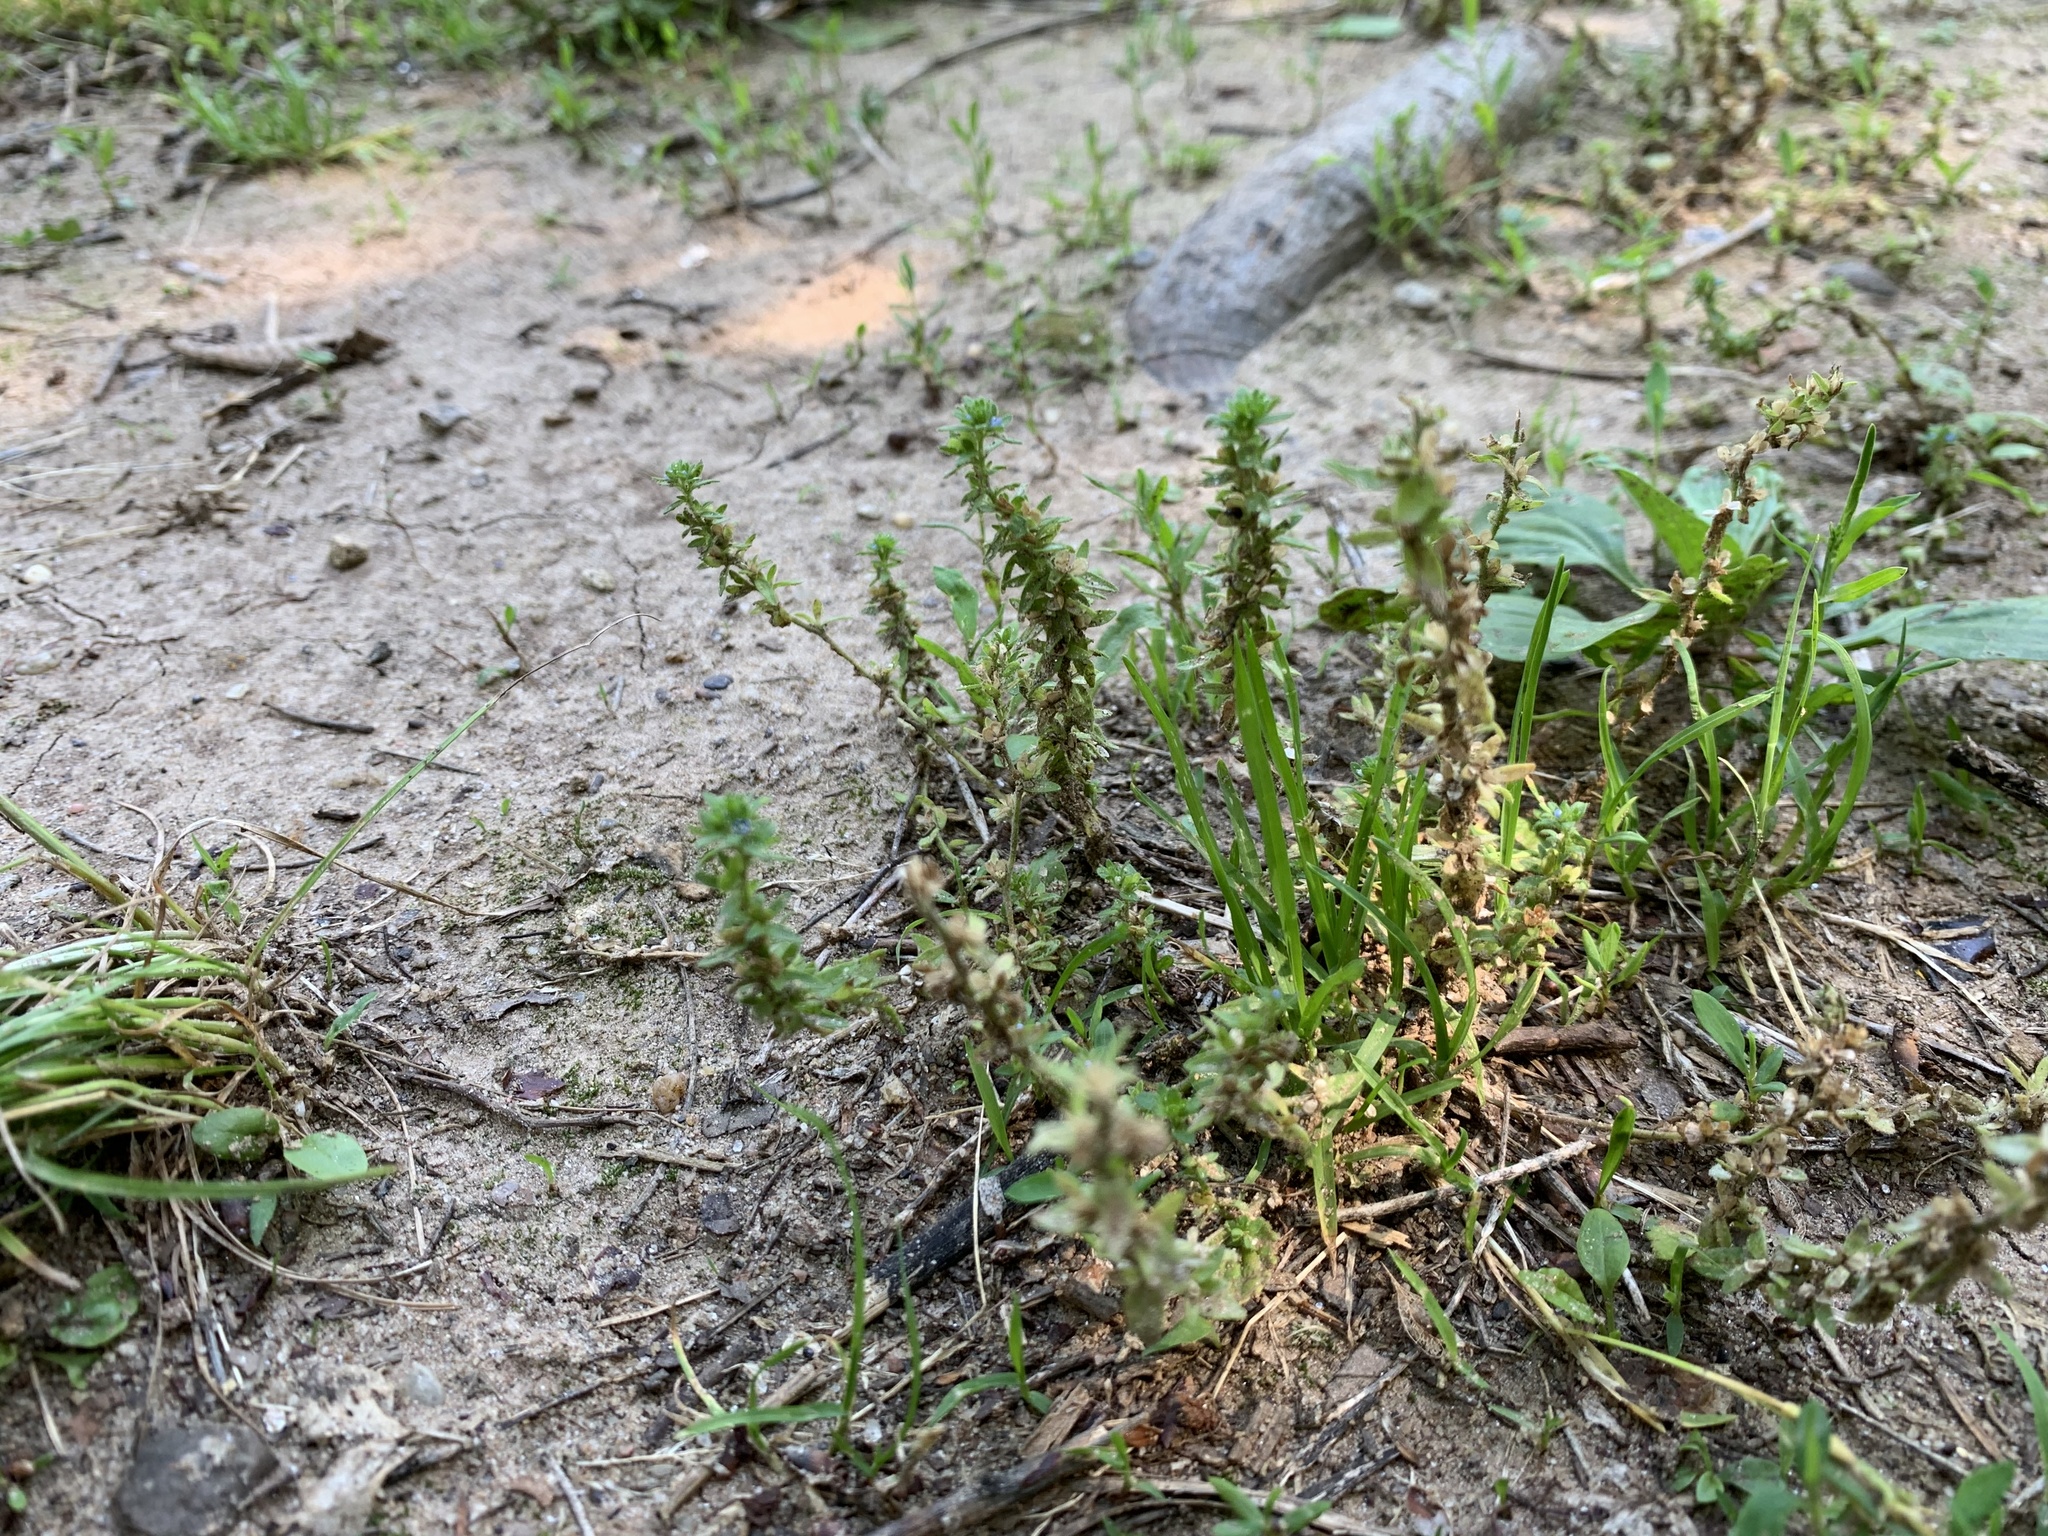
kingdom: Plantae
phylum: Tracheophyta
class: Magnoliopsida
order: Lamiales
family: Plantaginaceae
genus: Veronica
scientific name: Veronica arvensis
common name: Corn speedwell
